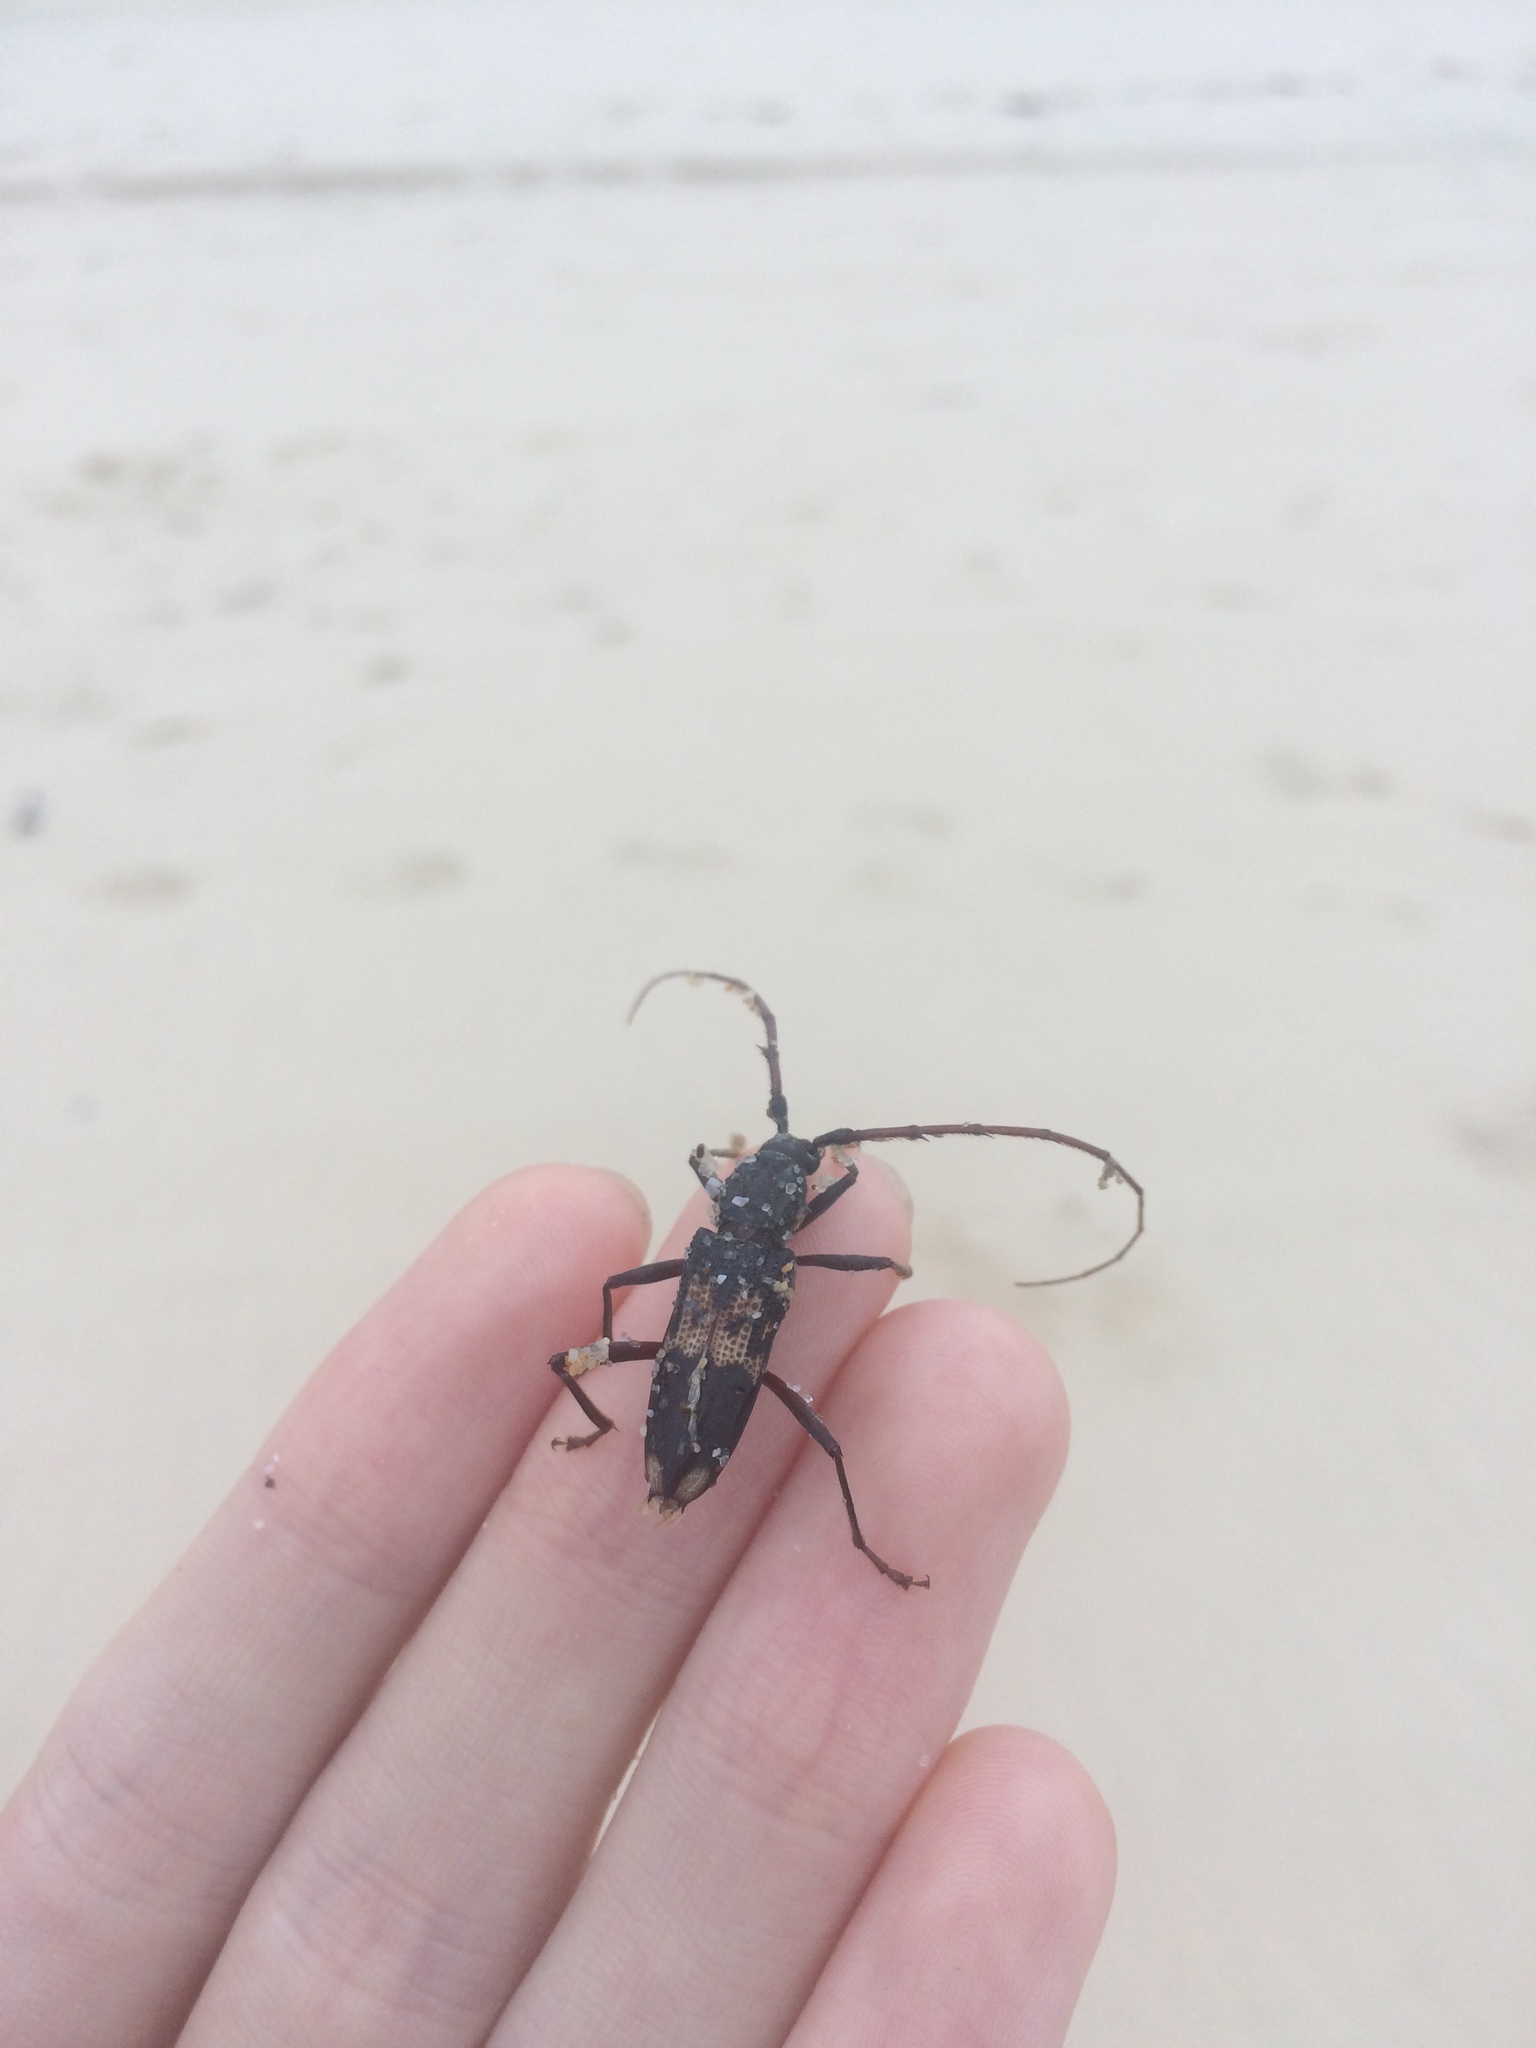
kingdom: Animalia
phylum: Arthropoda
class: Insecta
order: Coleoptera
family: Cerambycidae
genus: Phoracantha
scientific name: Phoracantha semipunctata
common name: Eucalyptus longhorn borer
